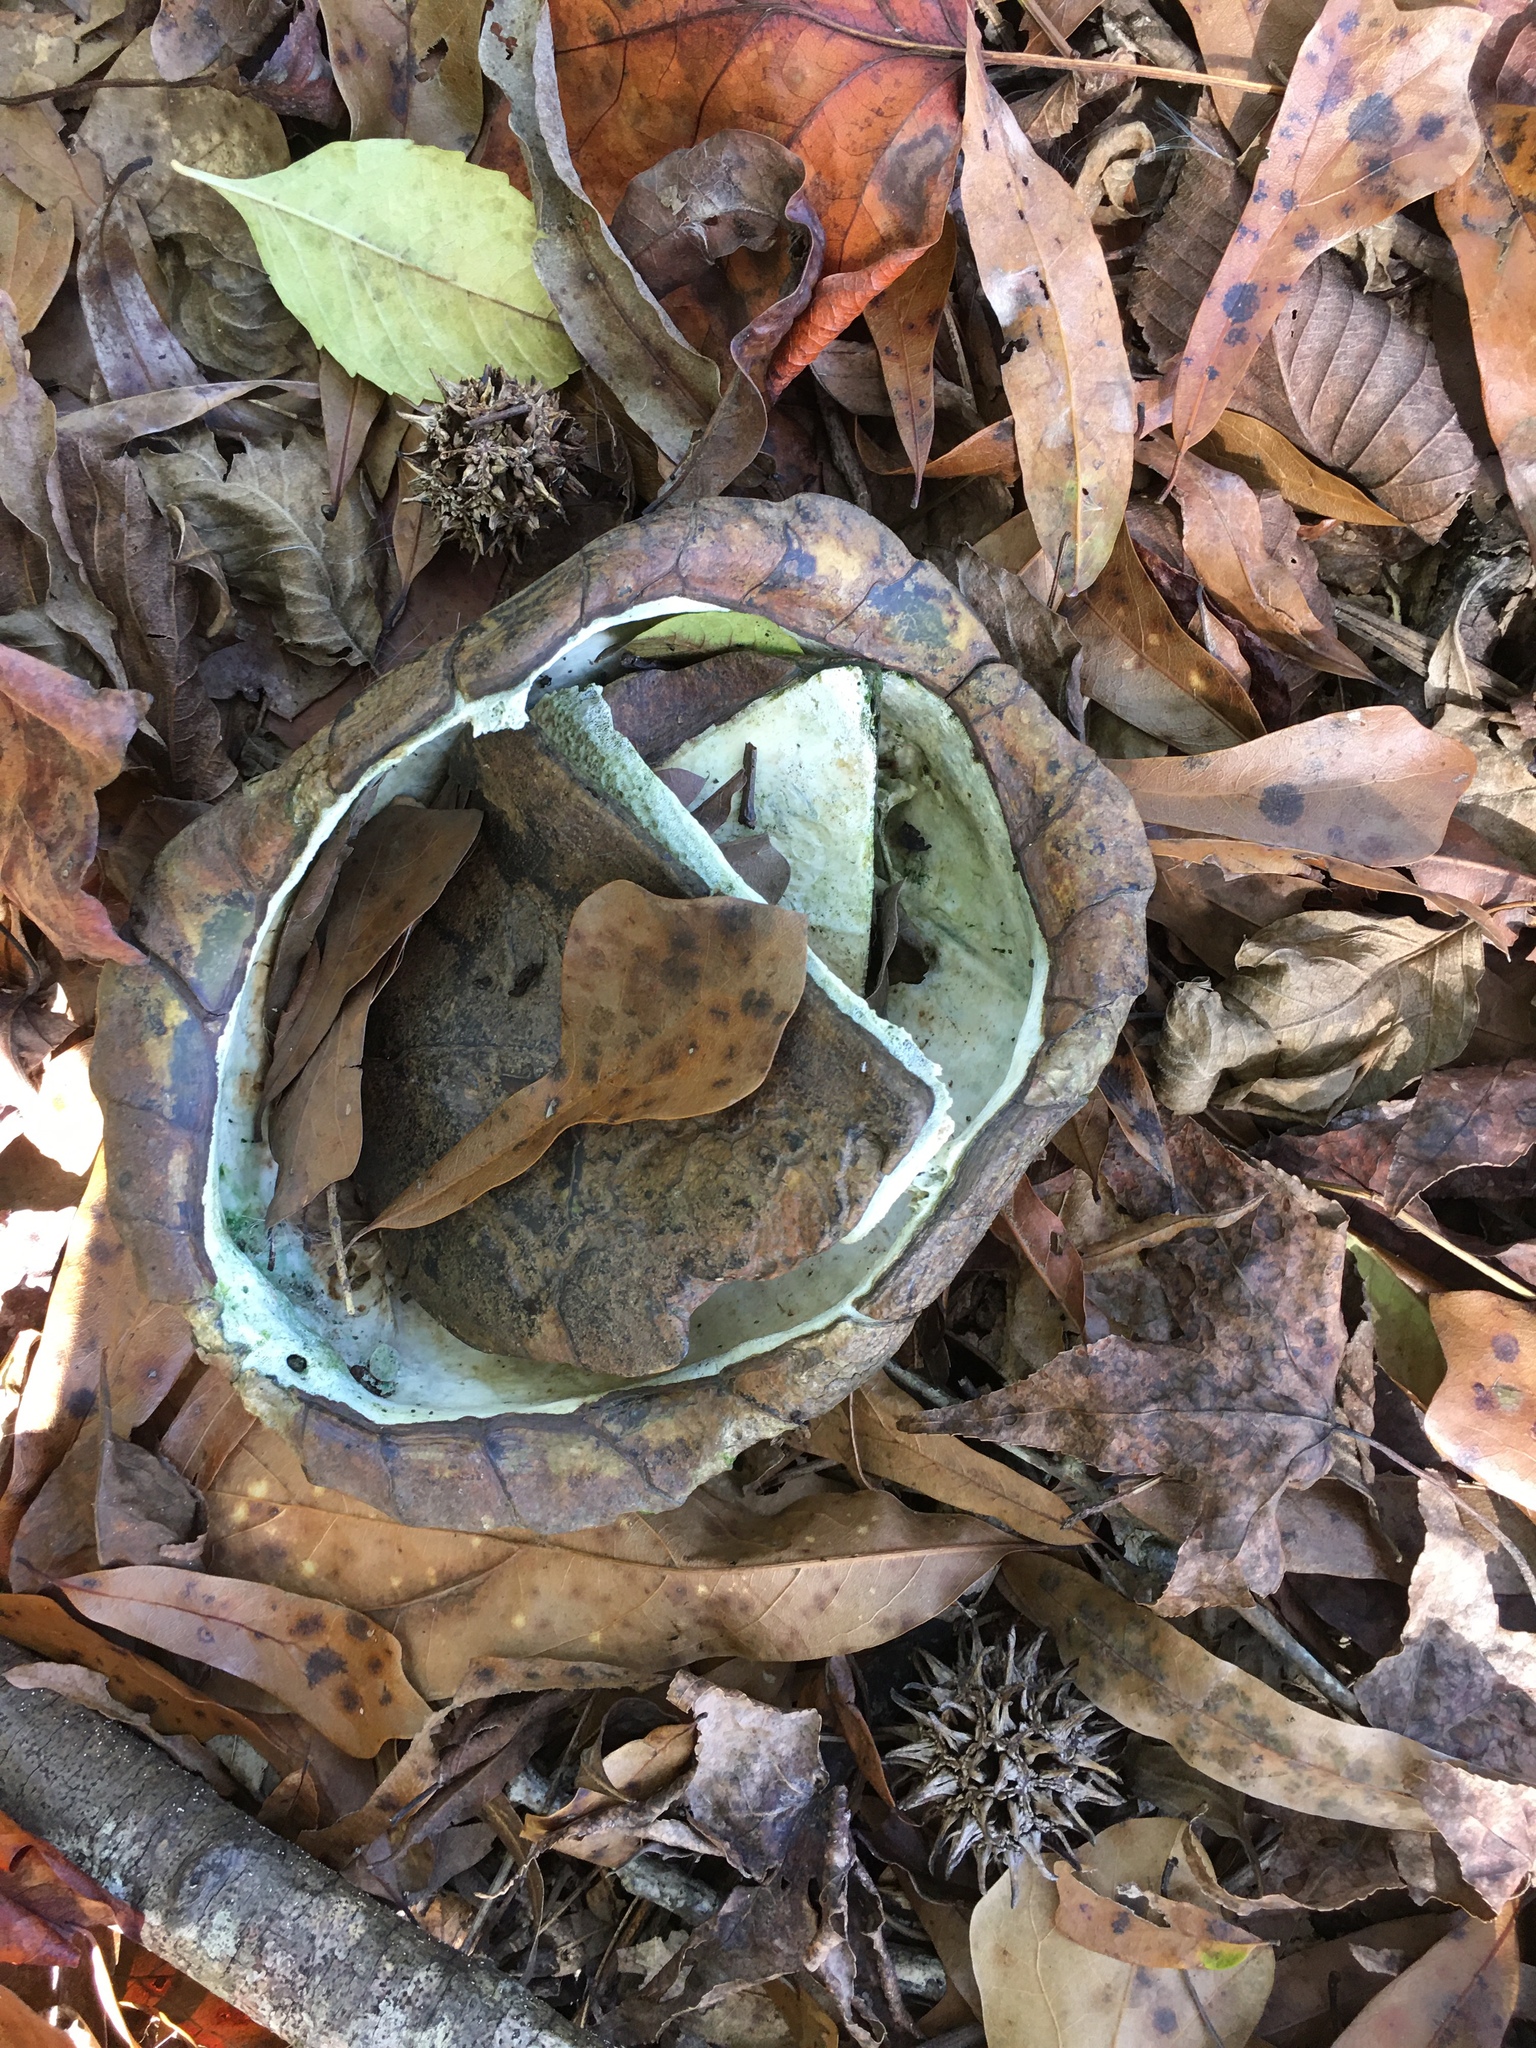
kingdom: Animalia
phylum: Chordata
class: Testudines
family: Emydidae
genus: Terrapene
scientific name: Terrapene carolina
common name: Common box turtle
